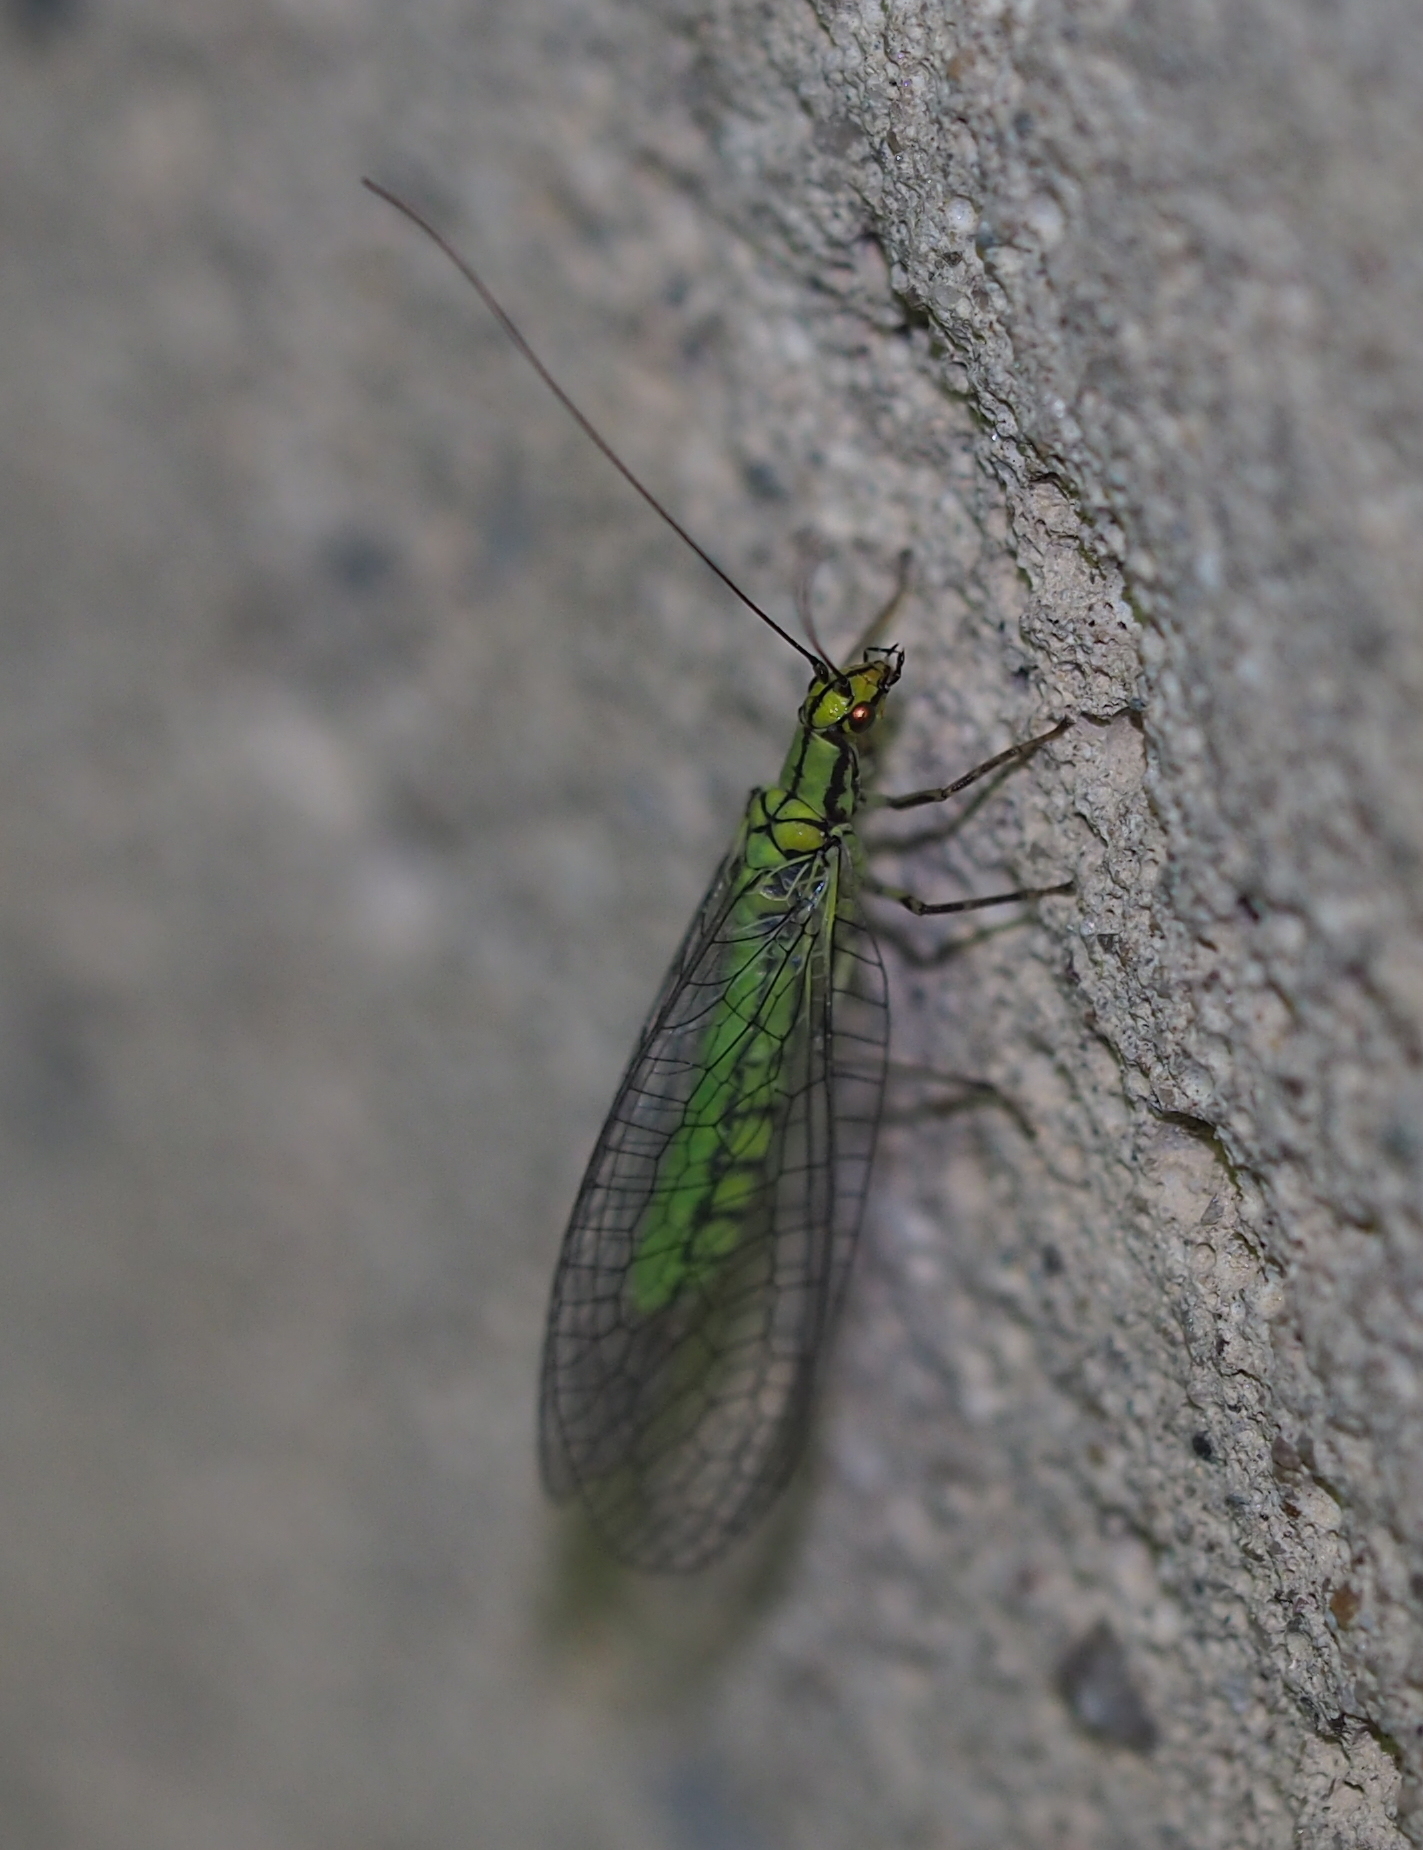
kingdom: Animalia
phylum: Arthropoda
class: Insecta
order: Neuroptera
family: Chrysopidae
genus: Hypochrysa
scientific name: Hypochrysa elegans
